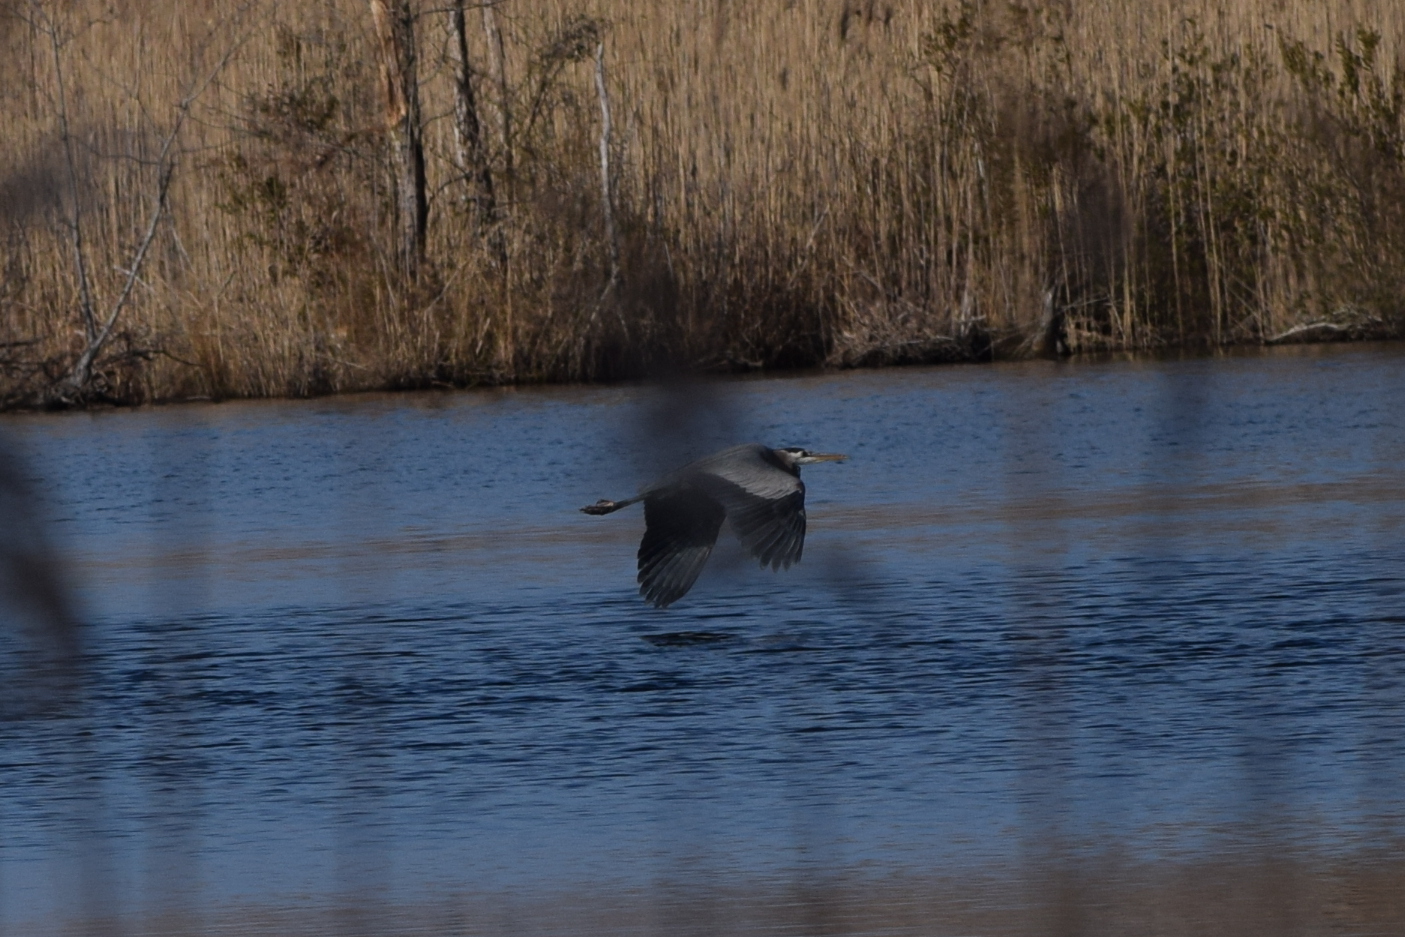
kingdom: Animalia
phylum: Chordata
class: Aves
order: Pelecaniformes
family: Ardeidae
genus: Ardea
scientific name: Ardea herodias
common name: Great blue heron
